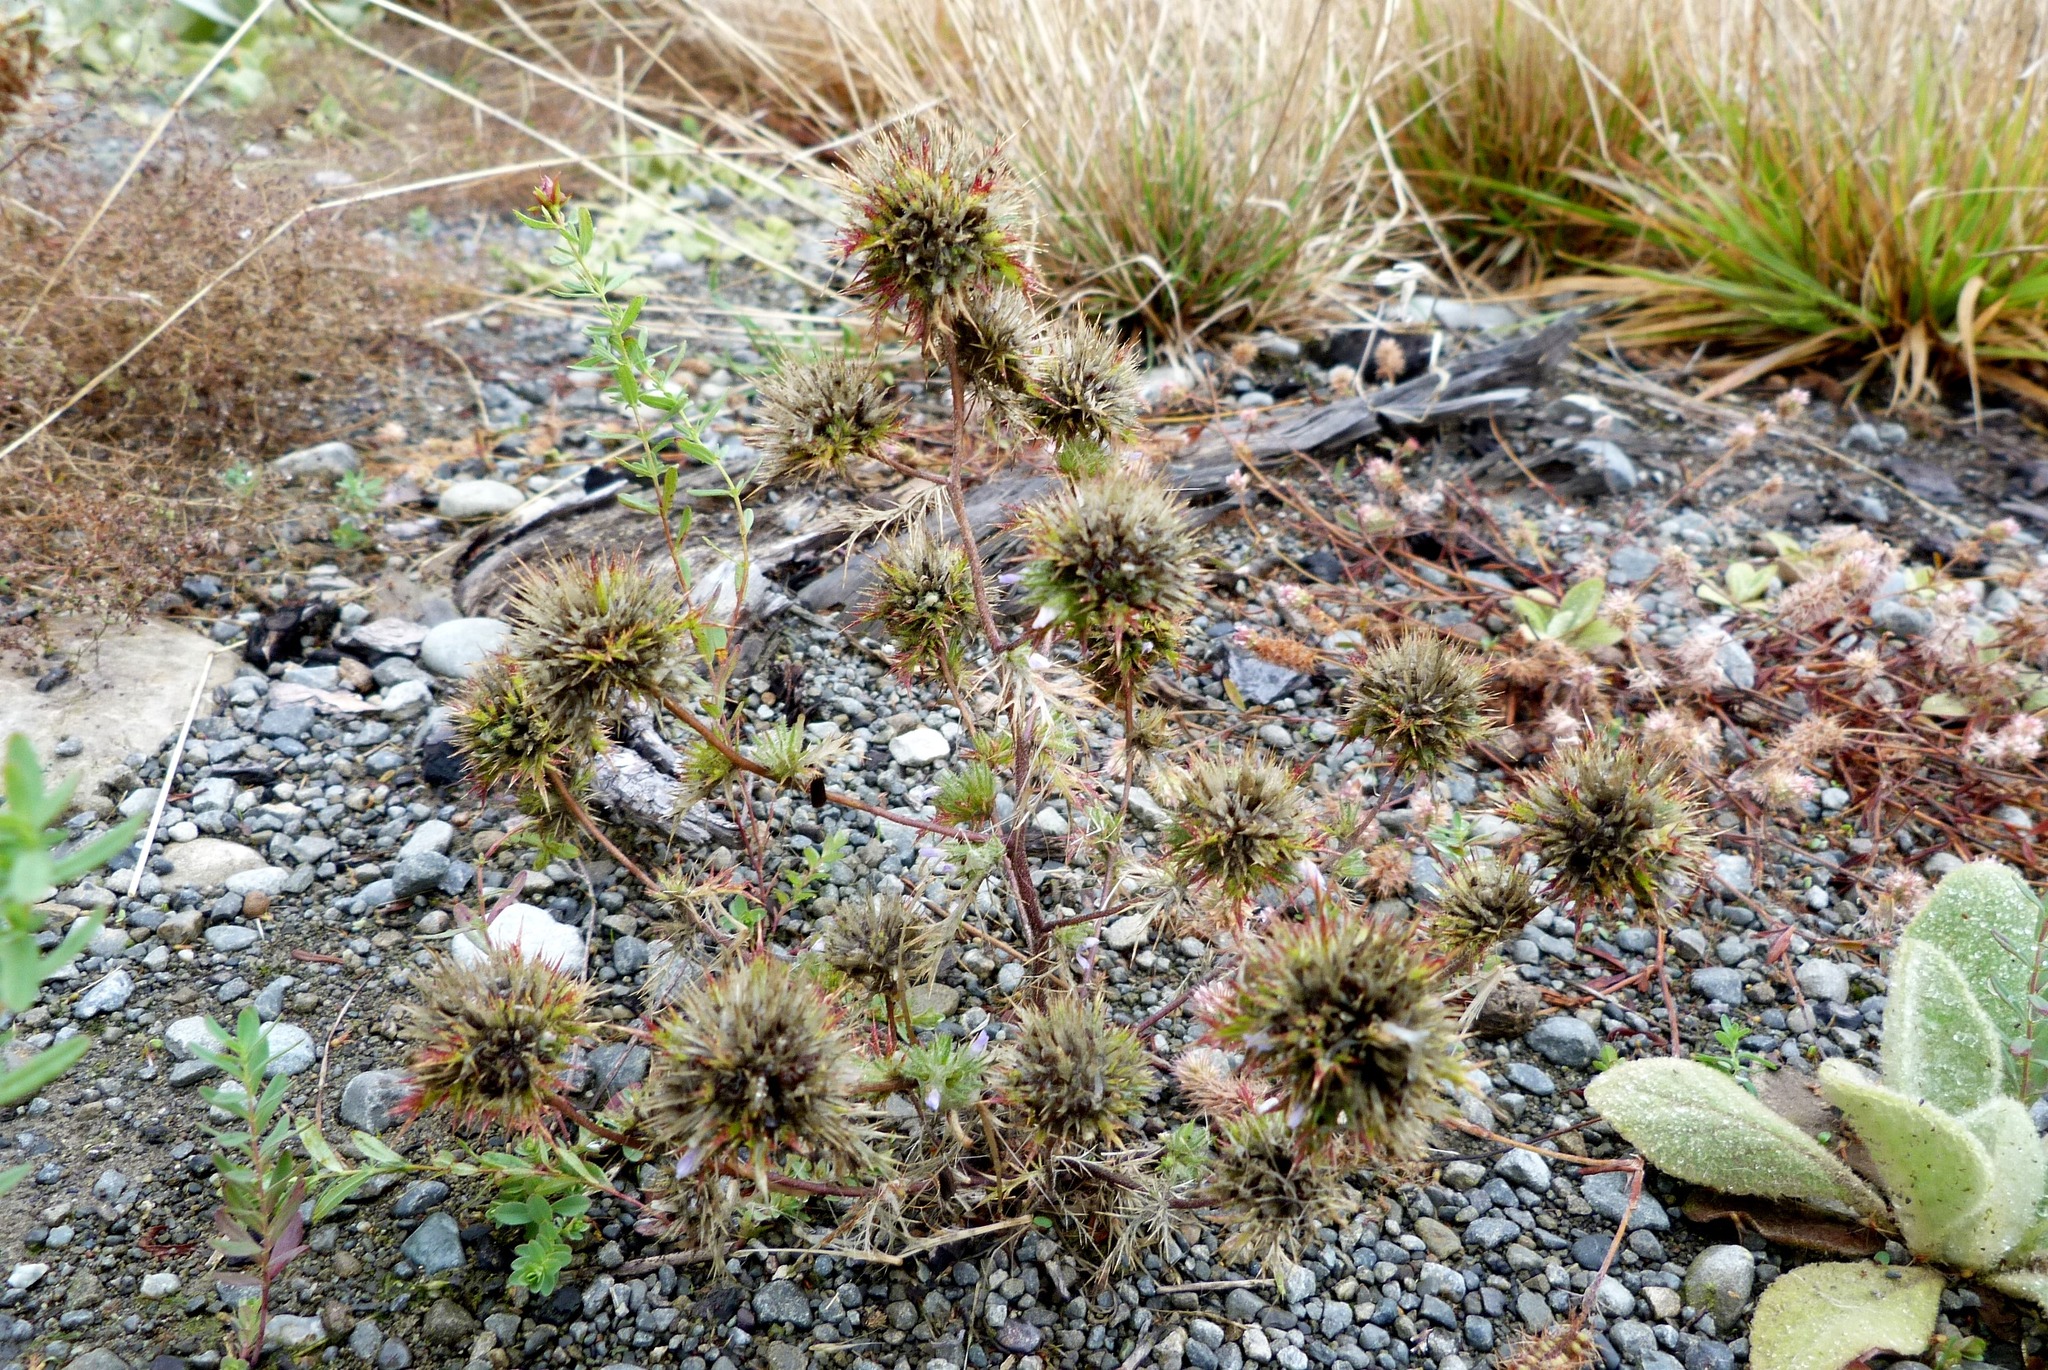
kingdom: Plantae
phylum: Tracheophyta
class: Magnoliopsida
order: Ericales
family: Polemoniaceae
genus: Navarretia
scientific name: Navarretia squarrosa
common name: Skunkweed
